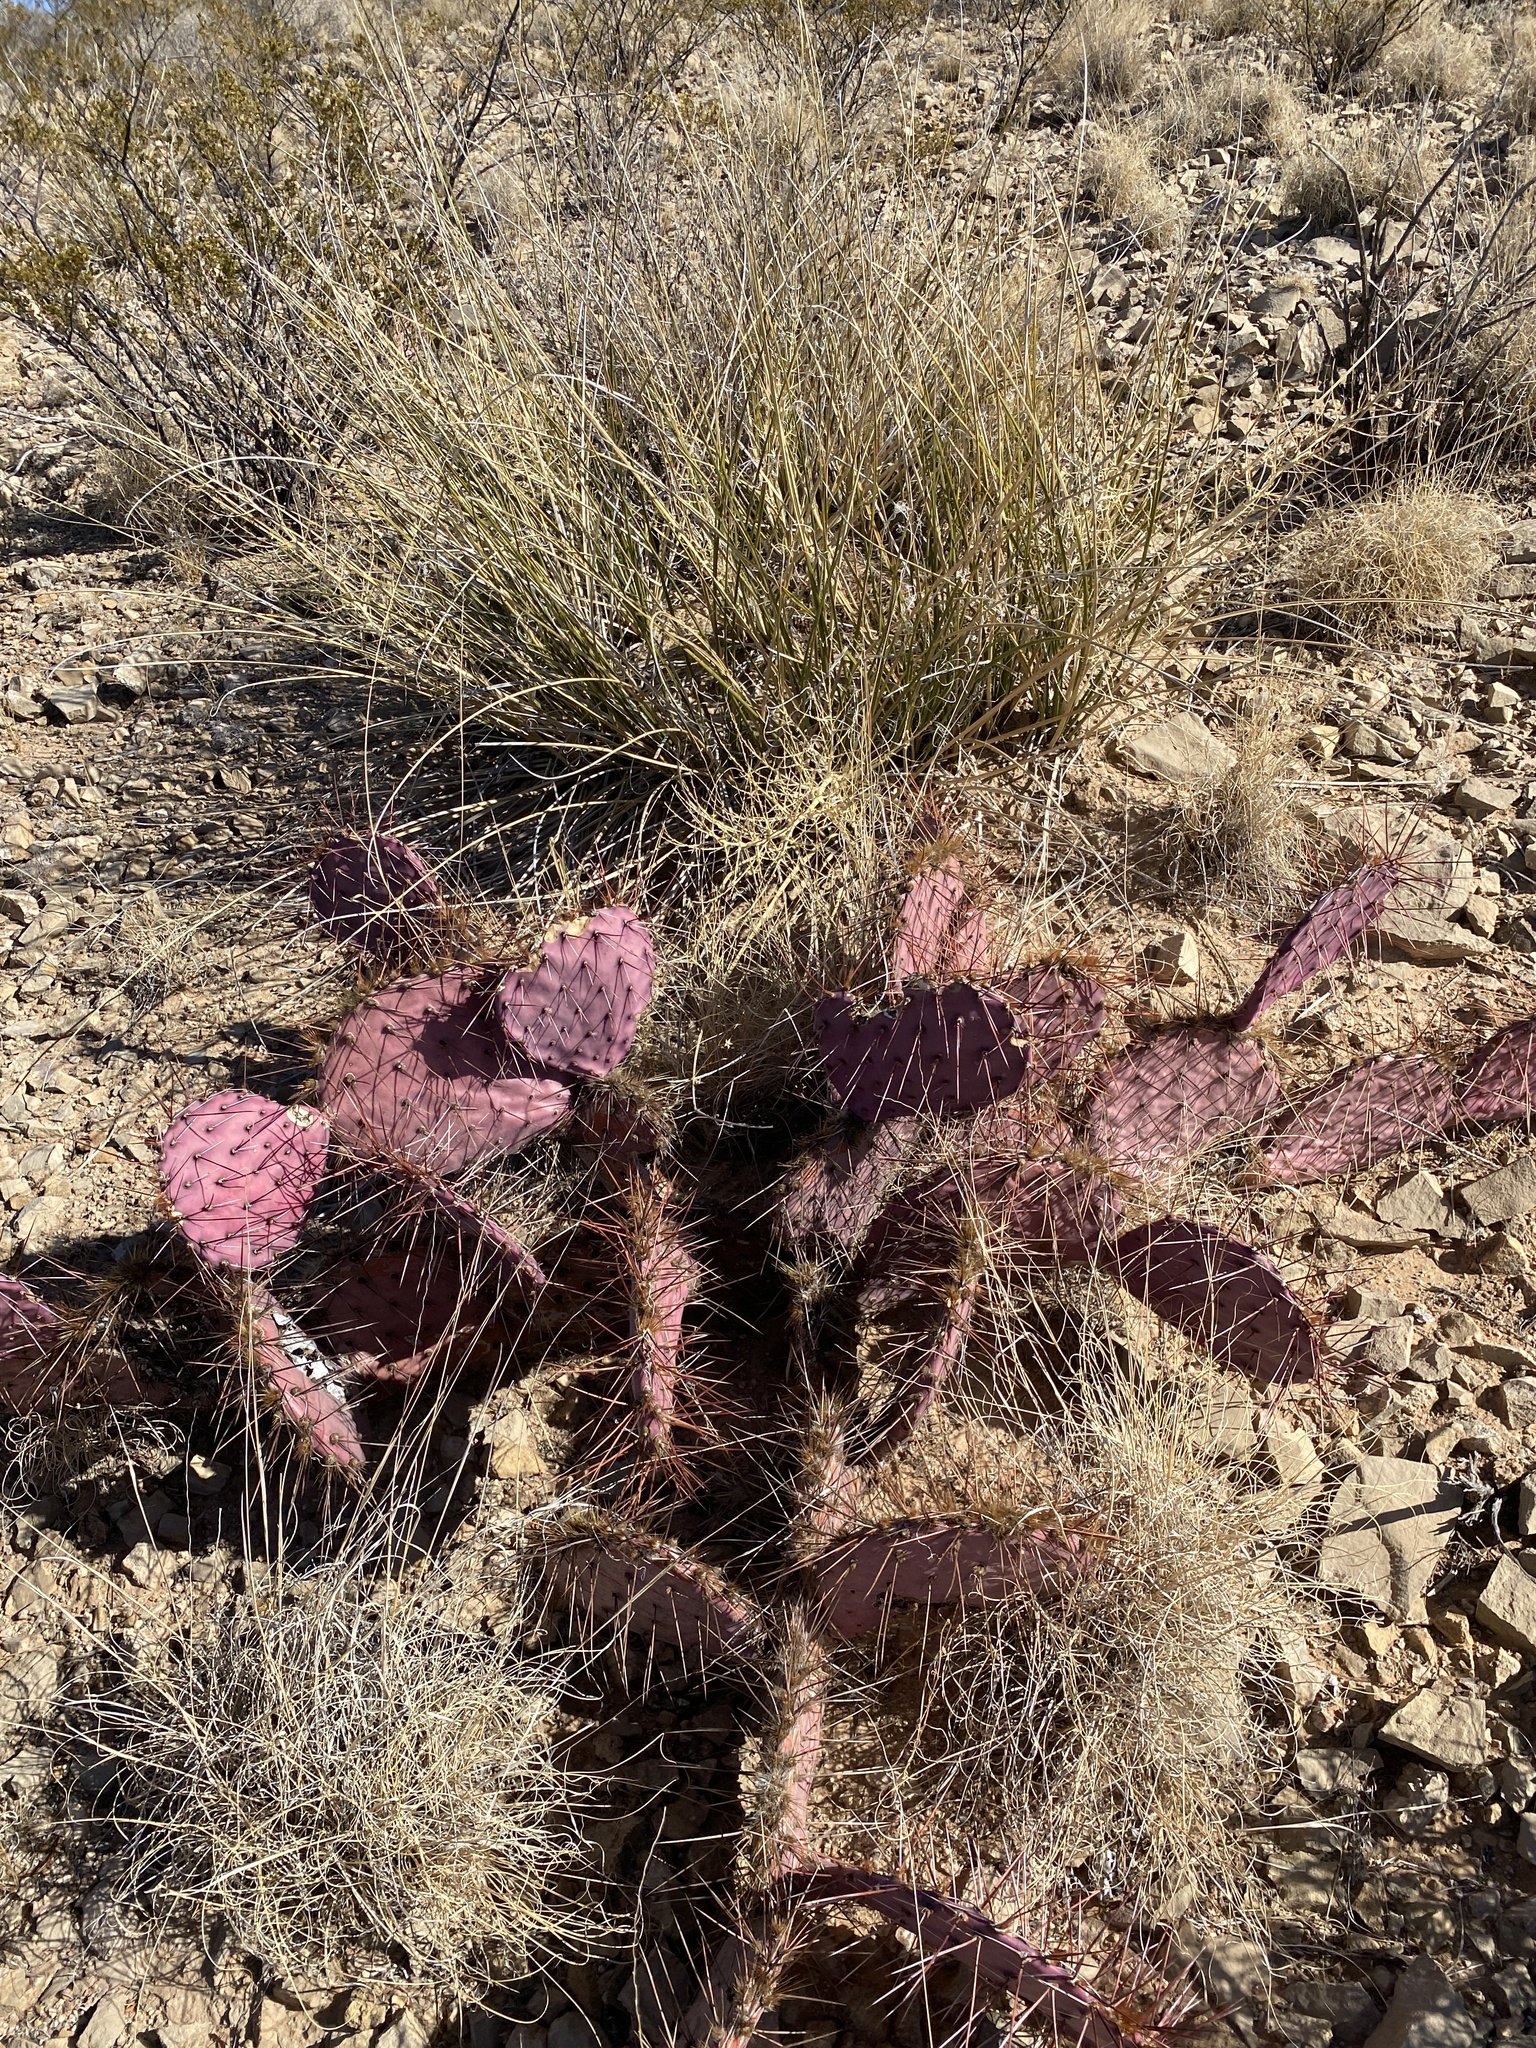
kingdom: Plantae
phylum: Tracheophyta
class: Magnoliopsida
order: Caryophyllales
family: Cactaceae
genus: Opuntia
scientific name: Opuntia macrocentra
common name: Purple prickly-pear
